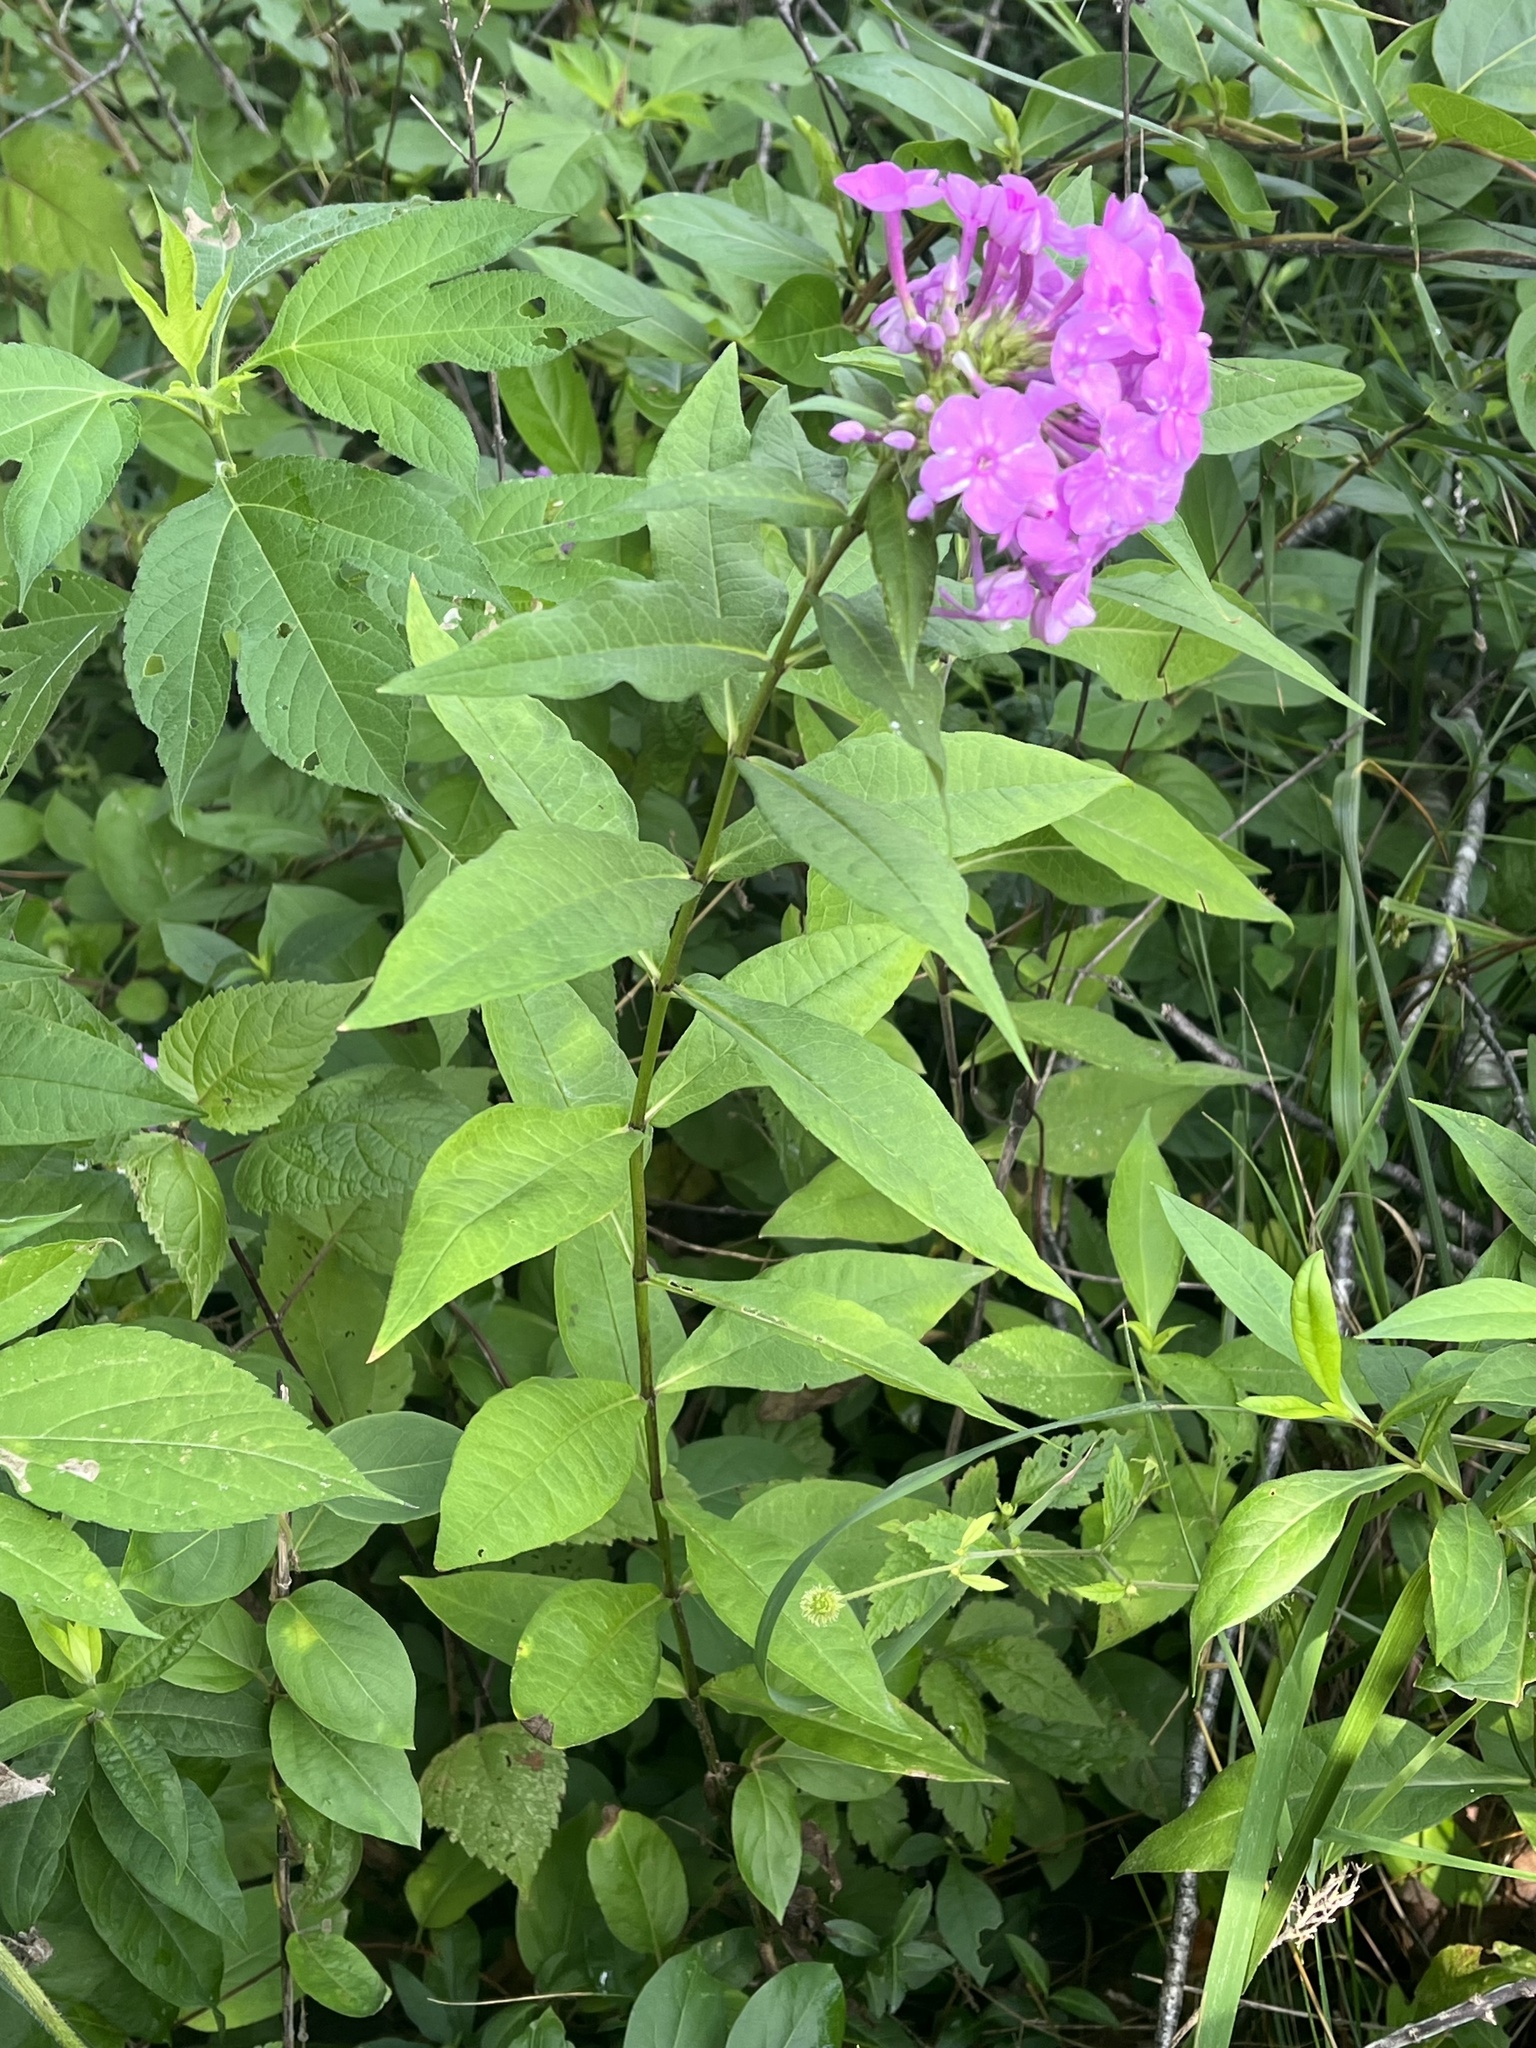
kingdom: Plantae
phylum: Tracheophyta
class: Magnoliopsida
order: Ericales
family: Polemoniaceae
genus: Phlox
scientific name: Phlox paniculata
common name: Fall phlox
